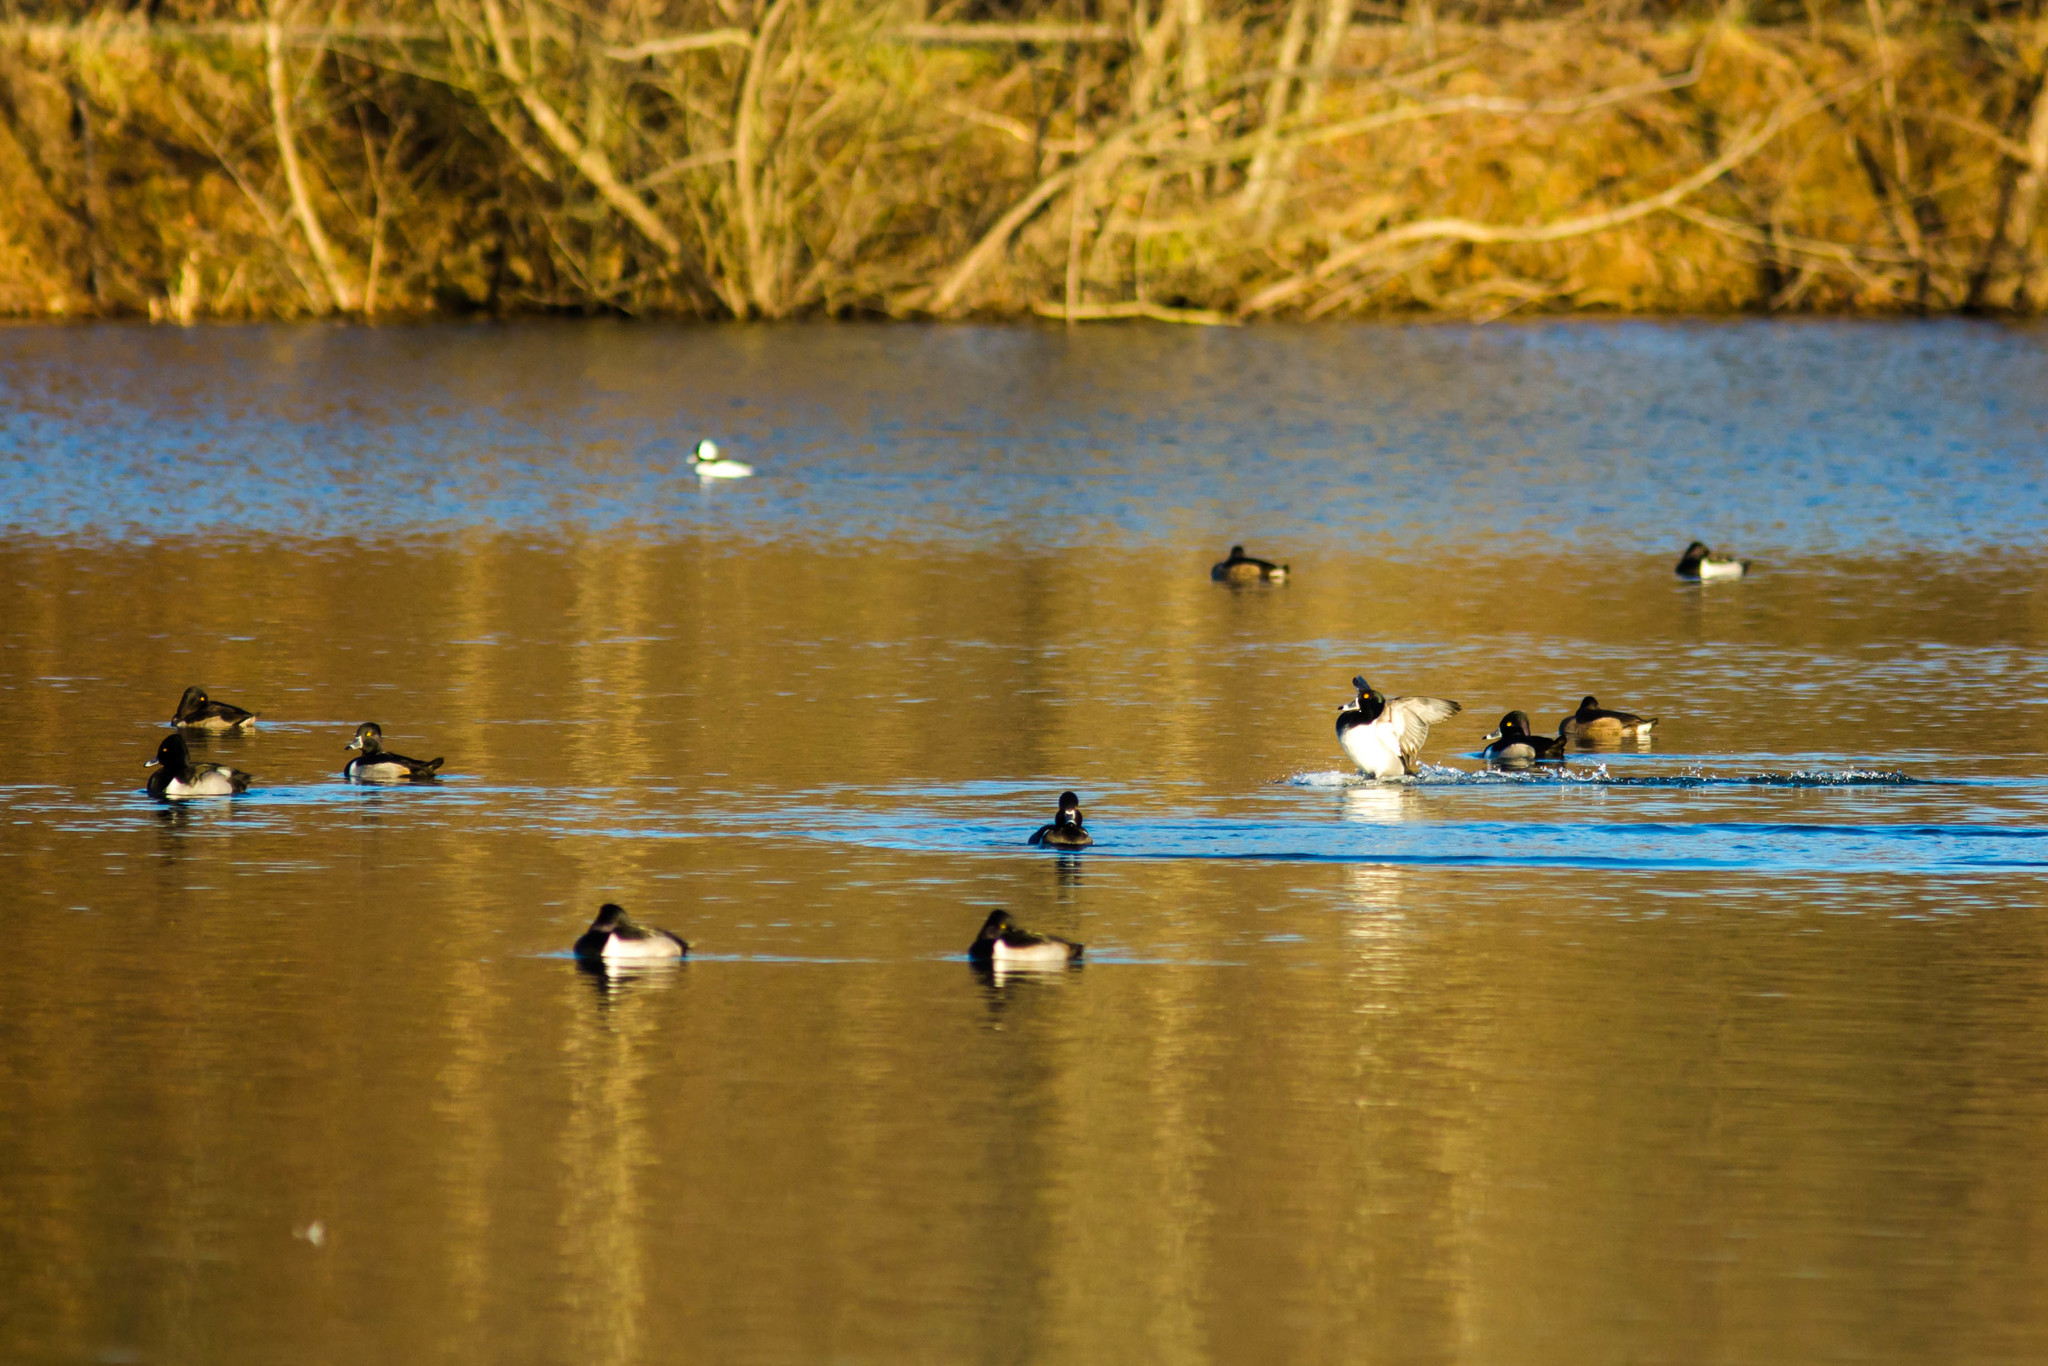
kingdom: Animalia
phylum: Chordata
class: Aves
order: Anseriformes
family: Anatidae
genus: Aythya
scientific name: Aythya collaris
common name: Ring-necked duck
